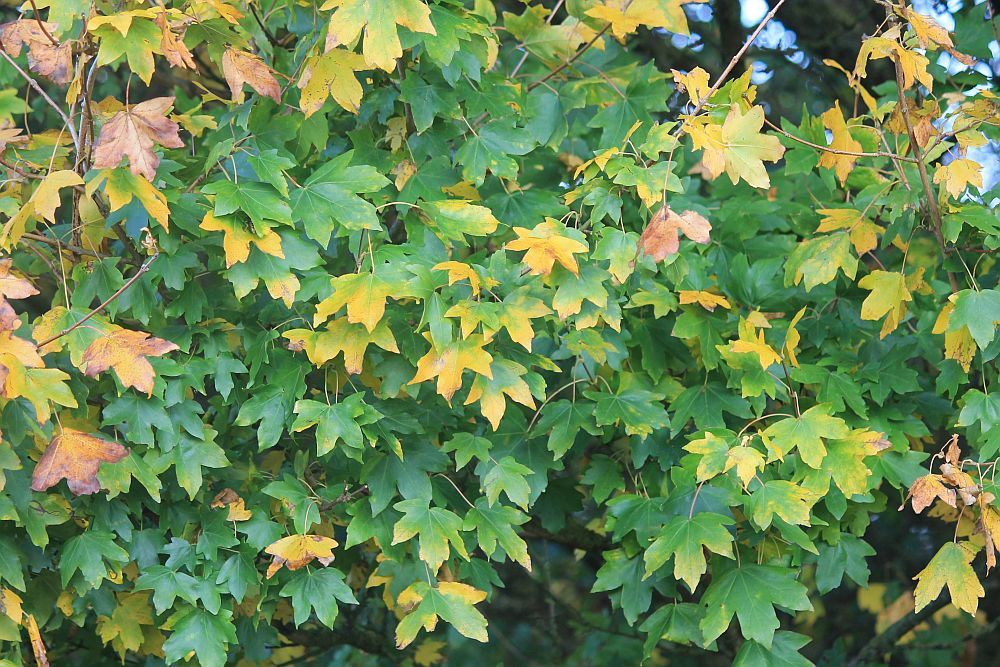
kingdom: Plantae
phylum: Tracheophyta
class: Magnoliopsida
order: Sapindales
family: Sapindaceae
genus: Acer
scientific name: Acer campestre
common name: Field maple
